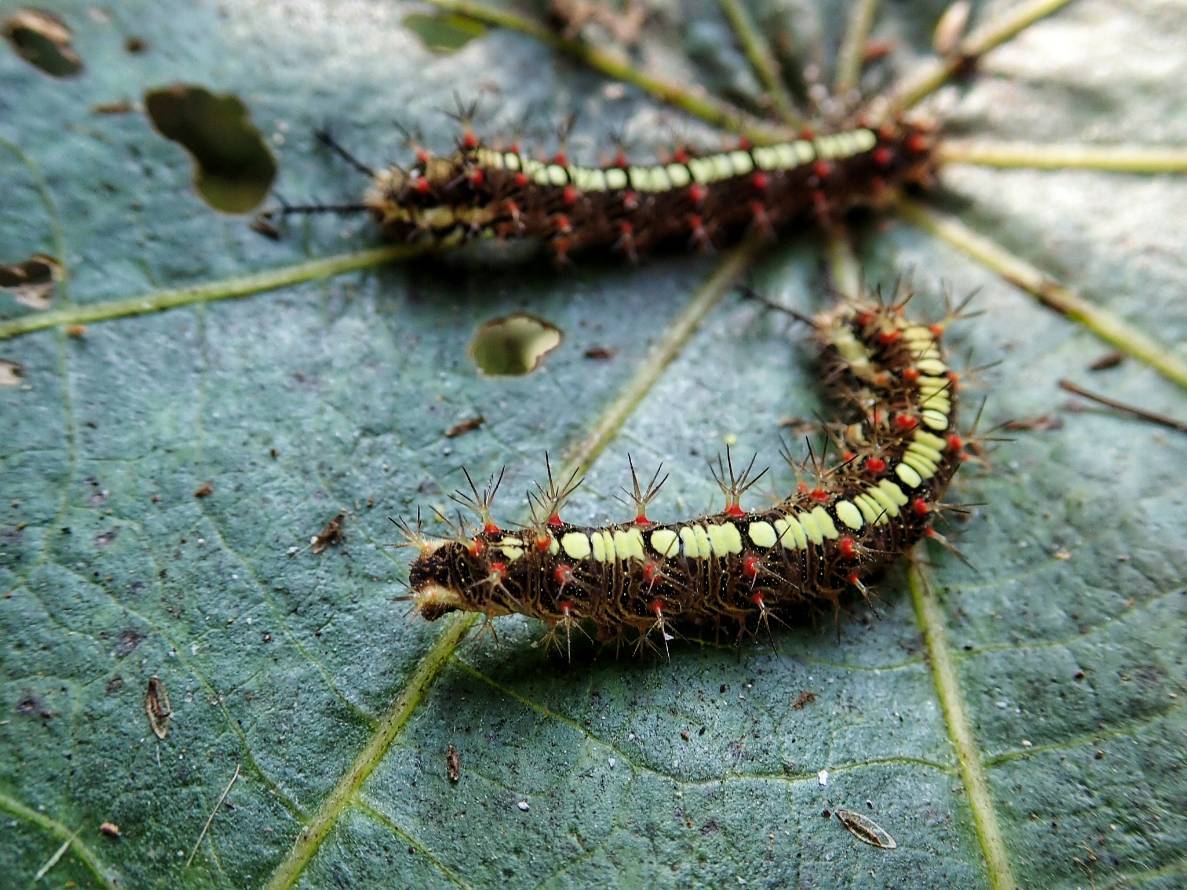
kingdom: Animalia
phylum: Arthropoda
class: Insecta
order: Lepidoptera
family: Nymphalidae
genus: Ariadne
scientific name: Ariadne ariadne
